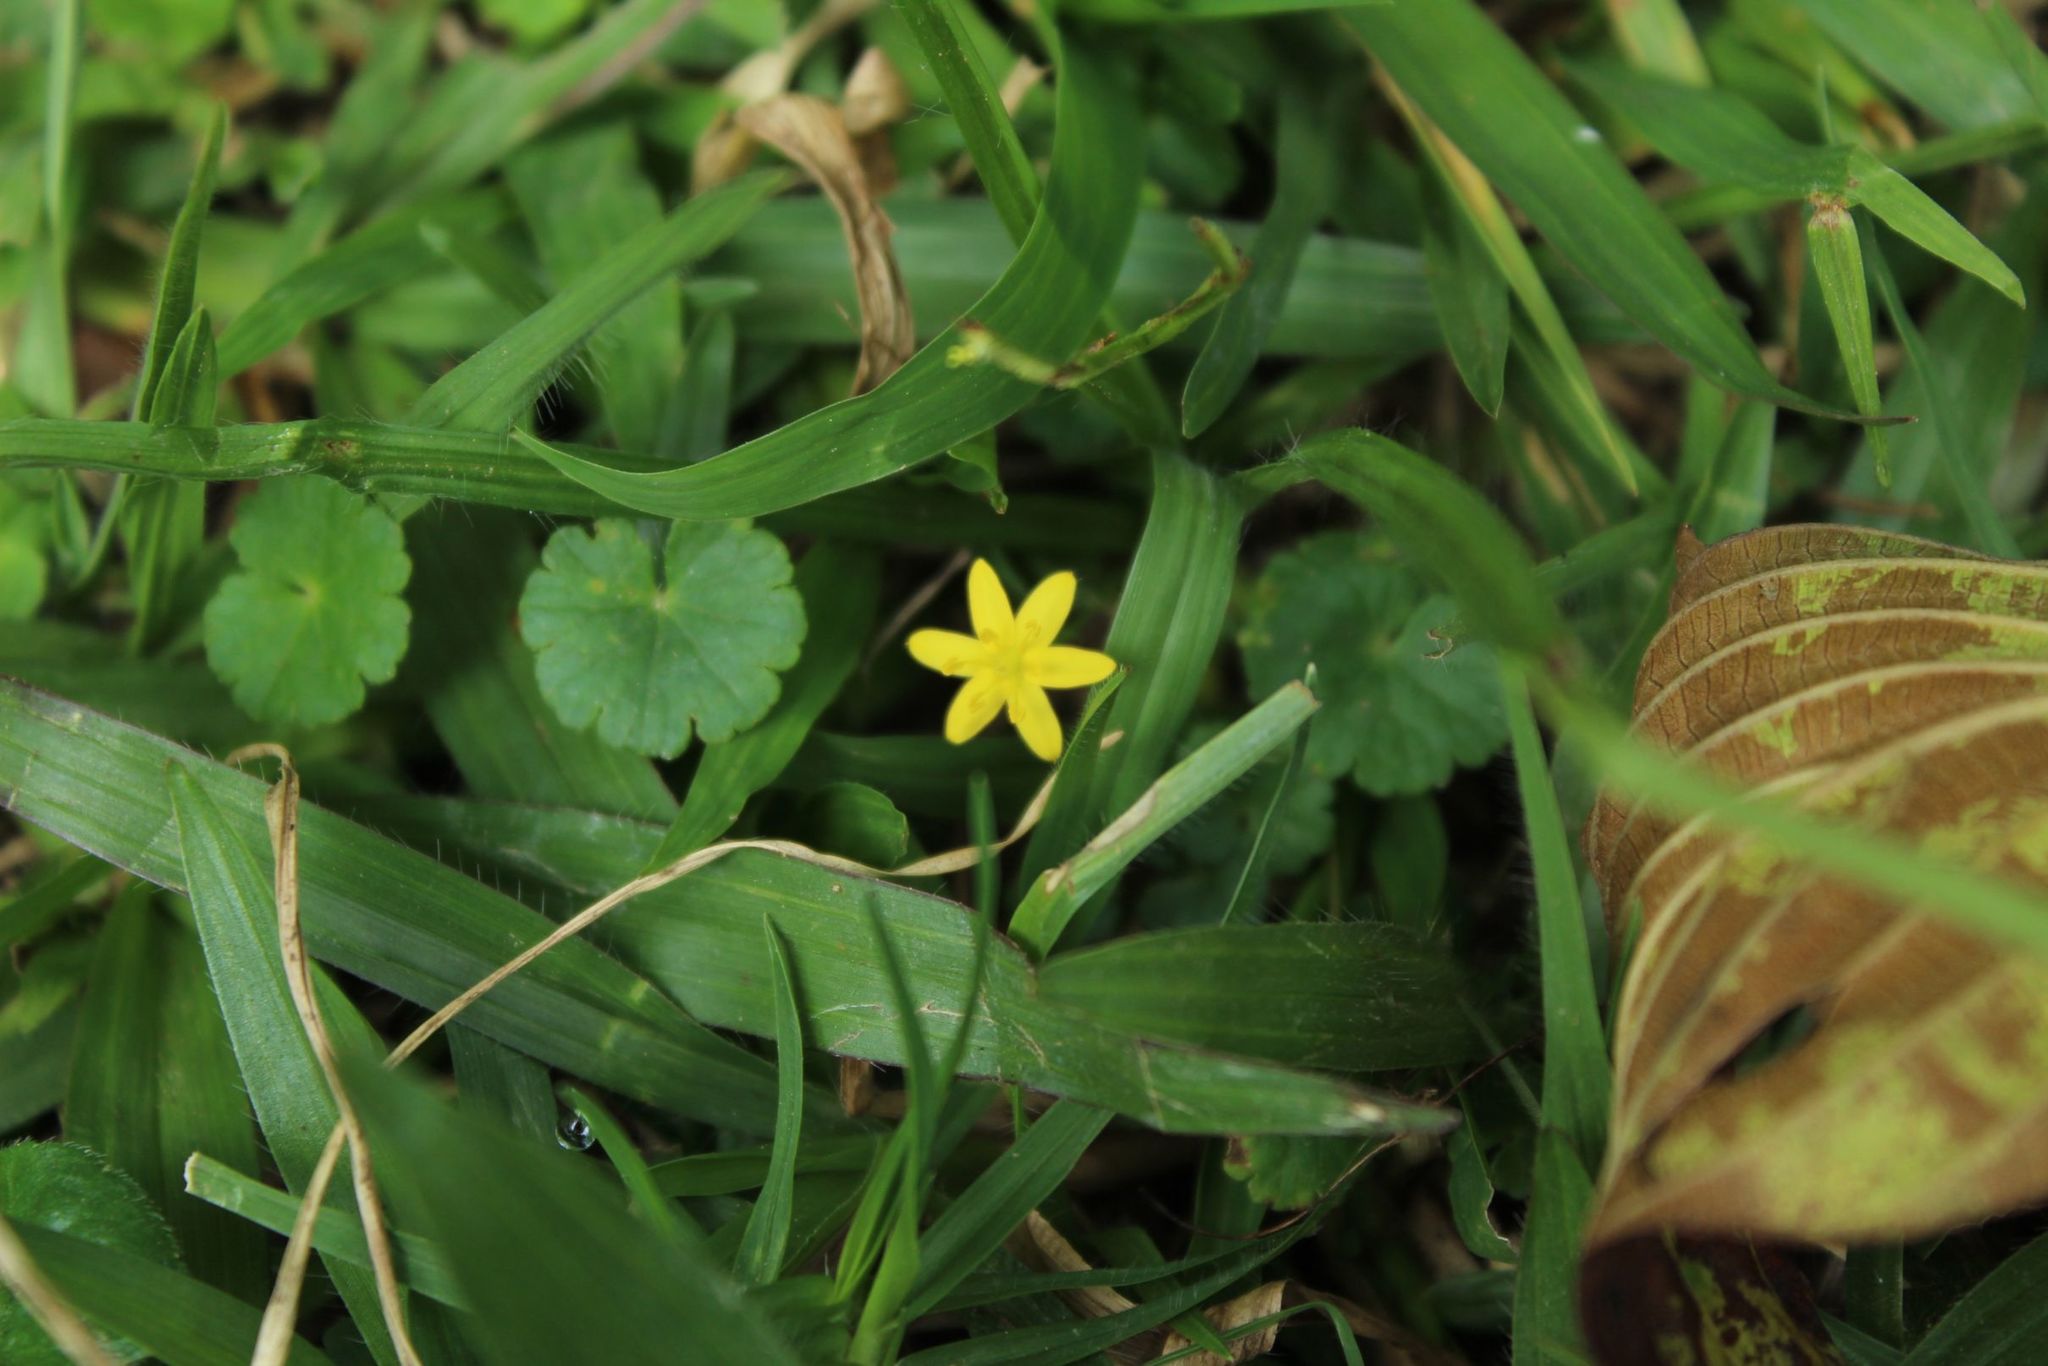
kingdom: Plantae
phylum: Tracheophyta
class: Liliopsida
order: Asparagales
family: Hypoxidaceae
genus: Hypoxis
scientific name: Hypoxis decumbens
